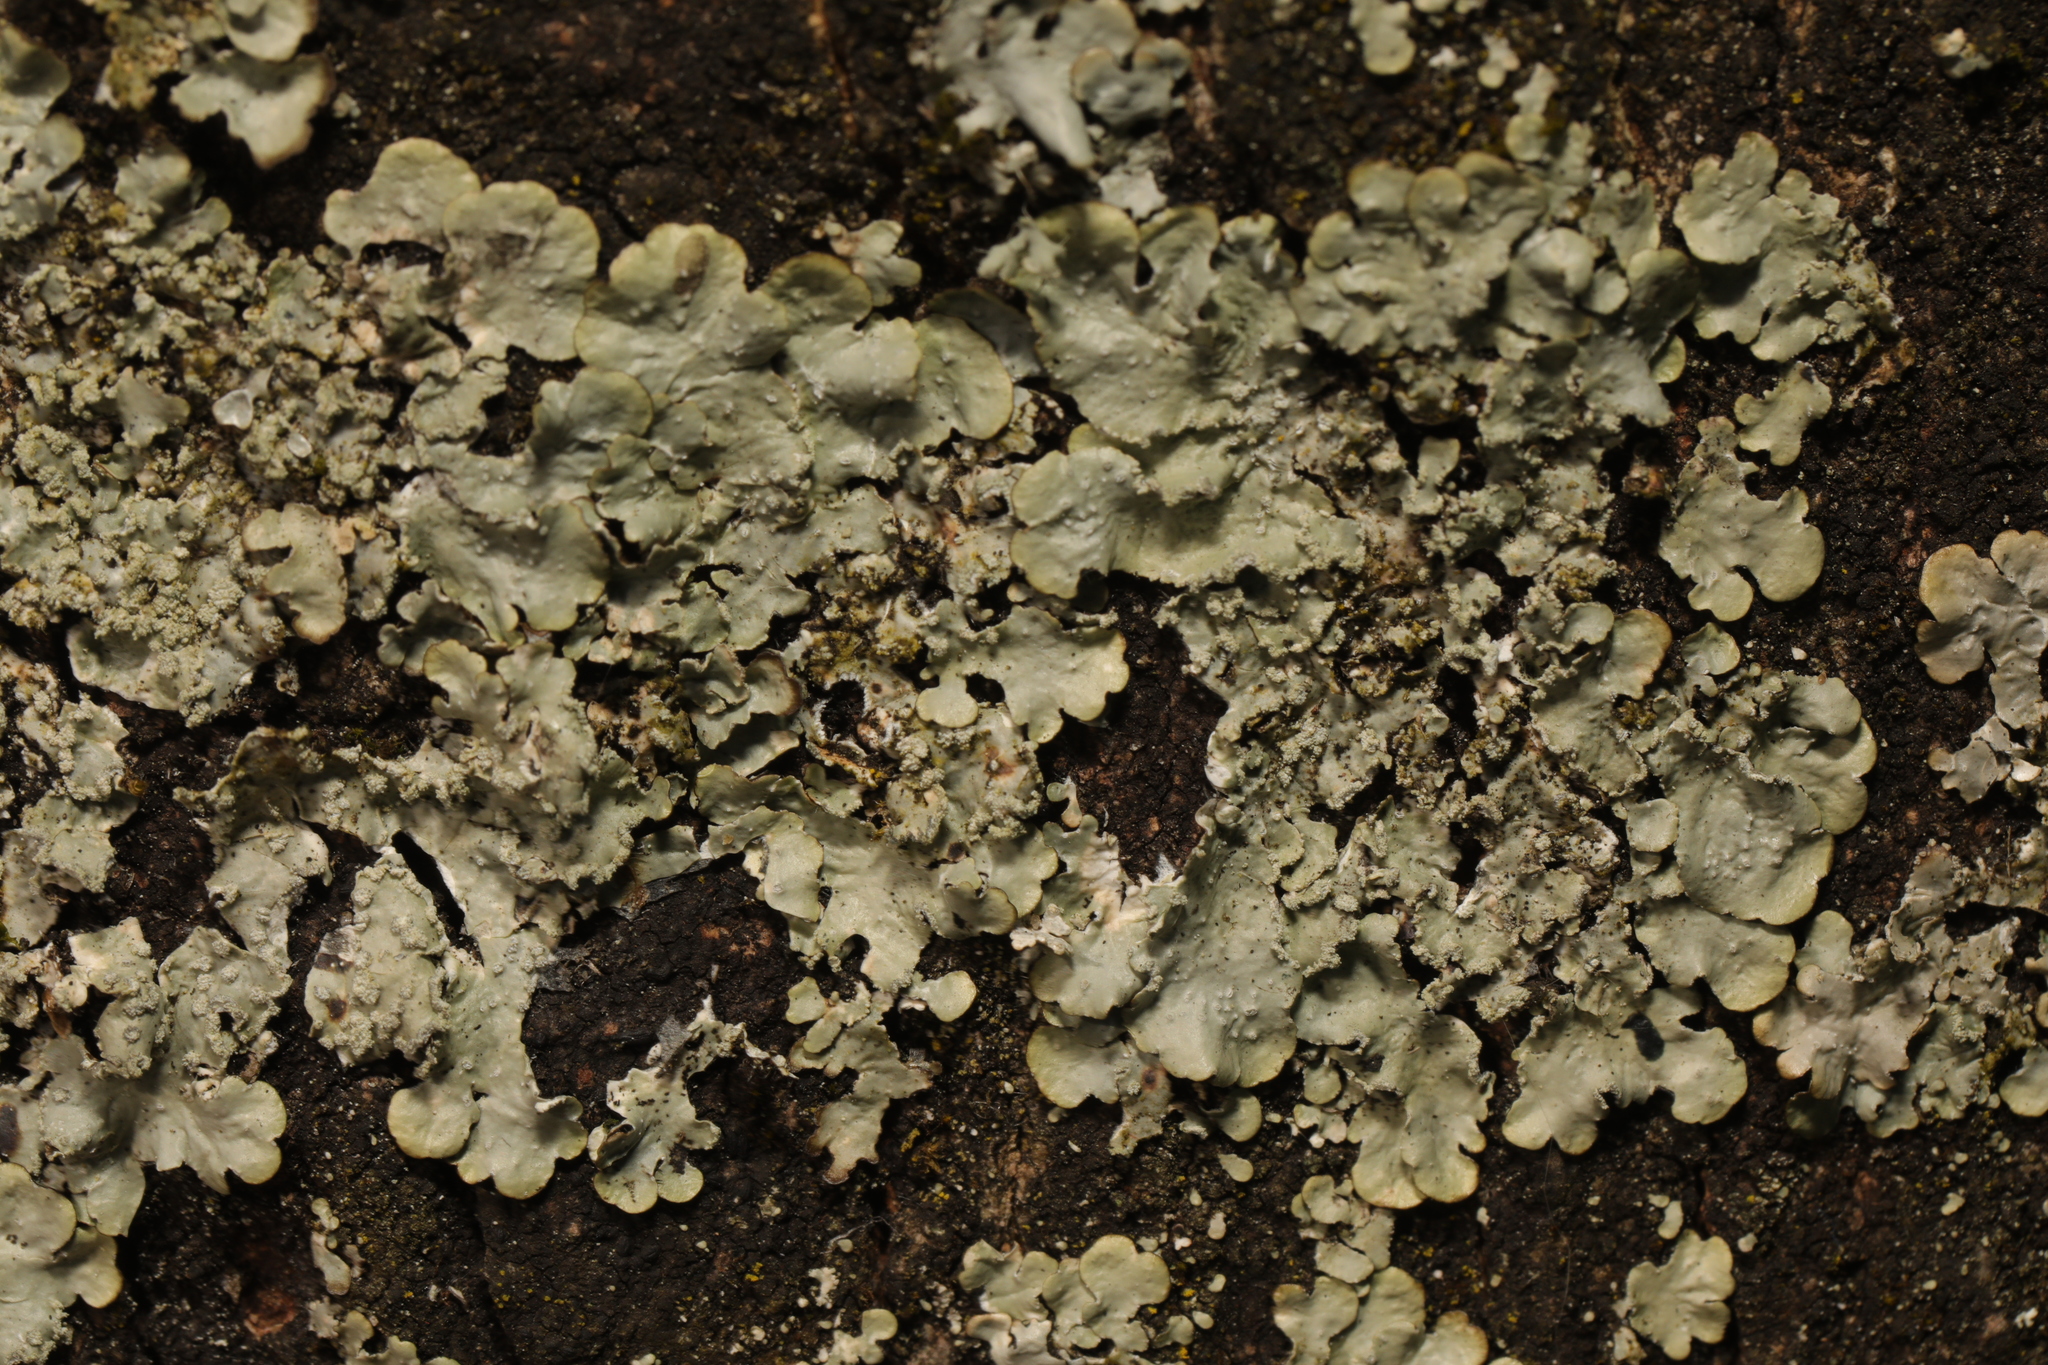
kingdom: Fungi
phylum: Ascomycota
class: Lecanoromycetes
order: Lecanorales
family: Parmeliaceae
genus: Punctelia
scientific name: Punctelia
